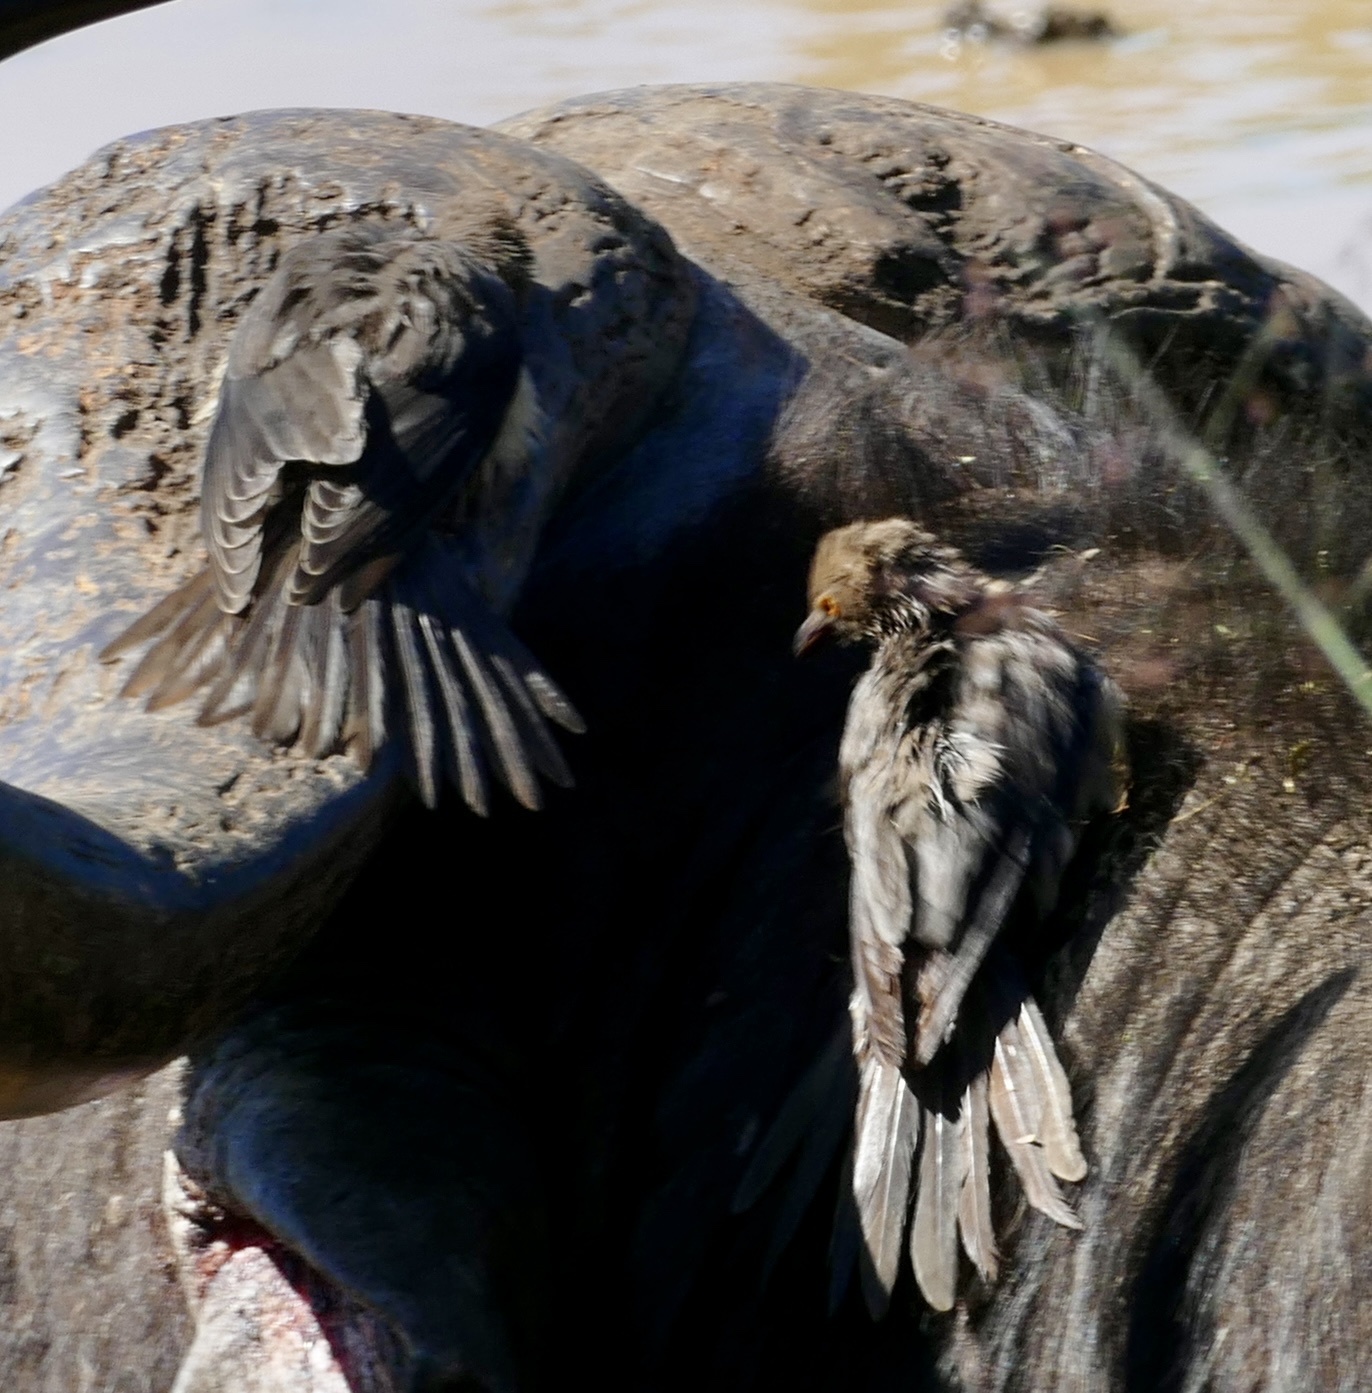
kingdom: Animalia
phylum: Chordata
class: Aves
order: Passeriformes
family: Buphagidae
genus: Buphagus
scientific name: Buphagus erythrorhynchus
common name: Red-billed oxpecker
